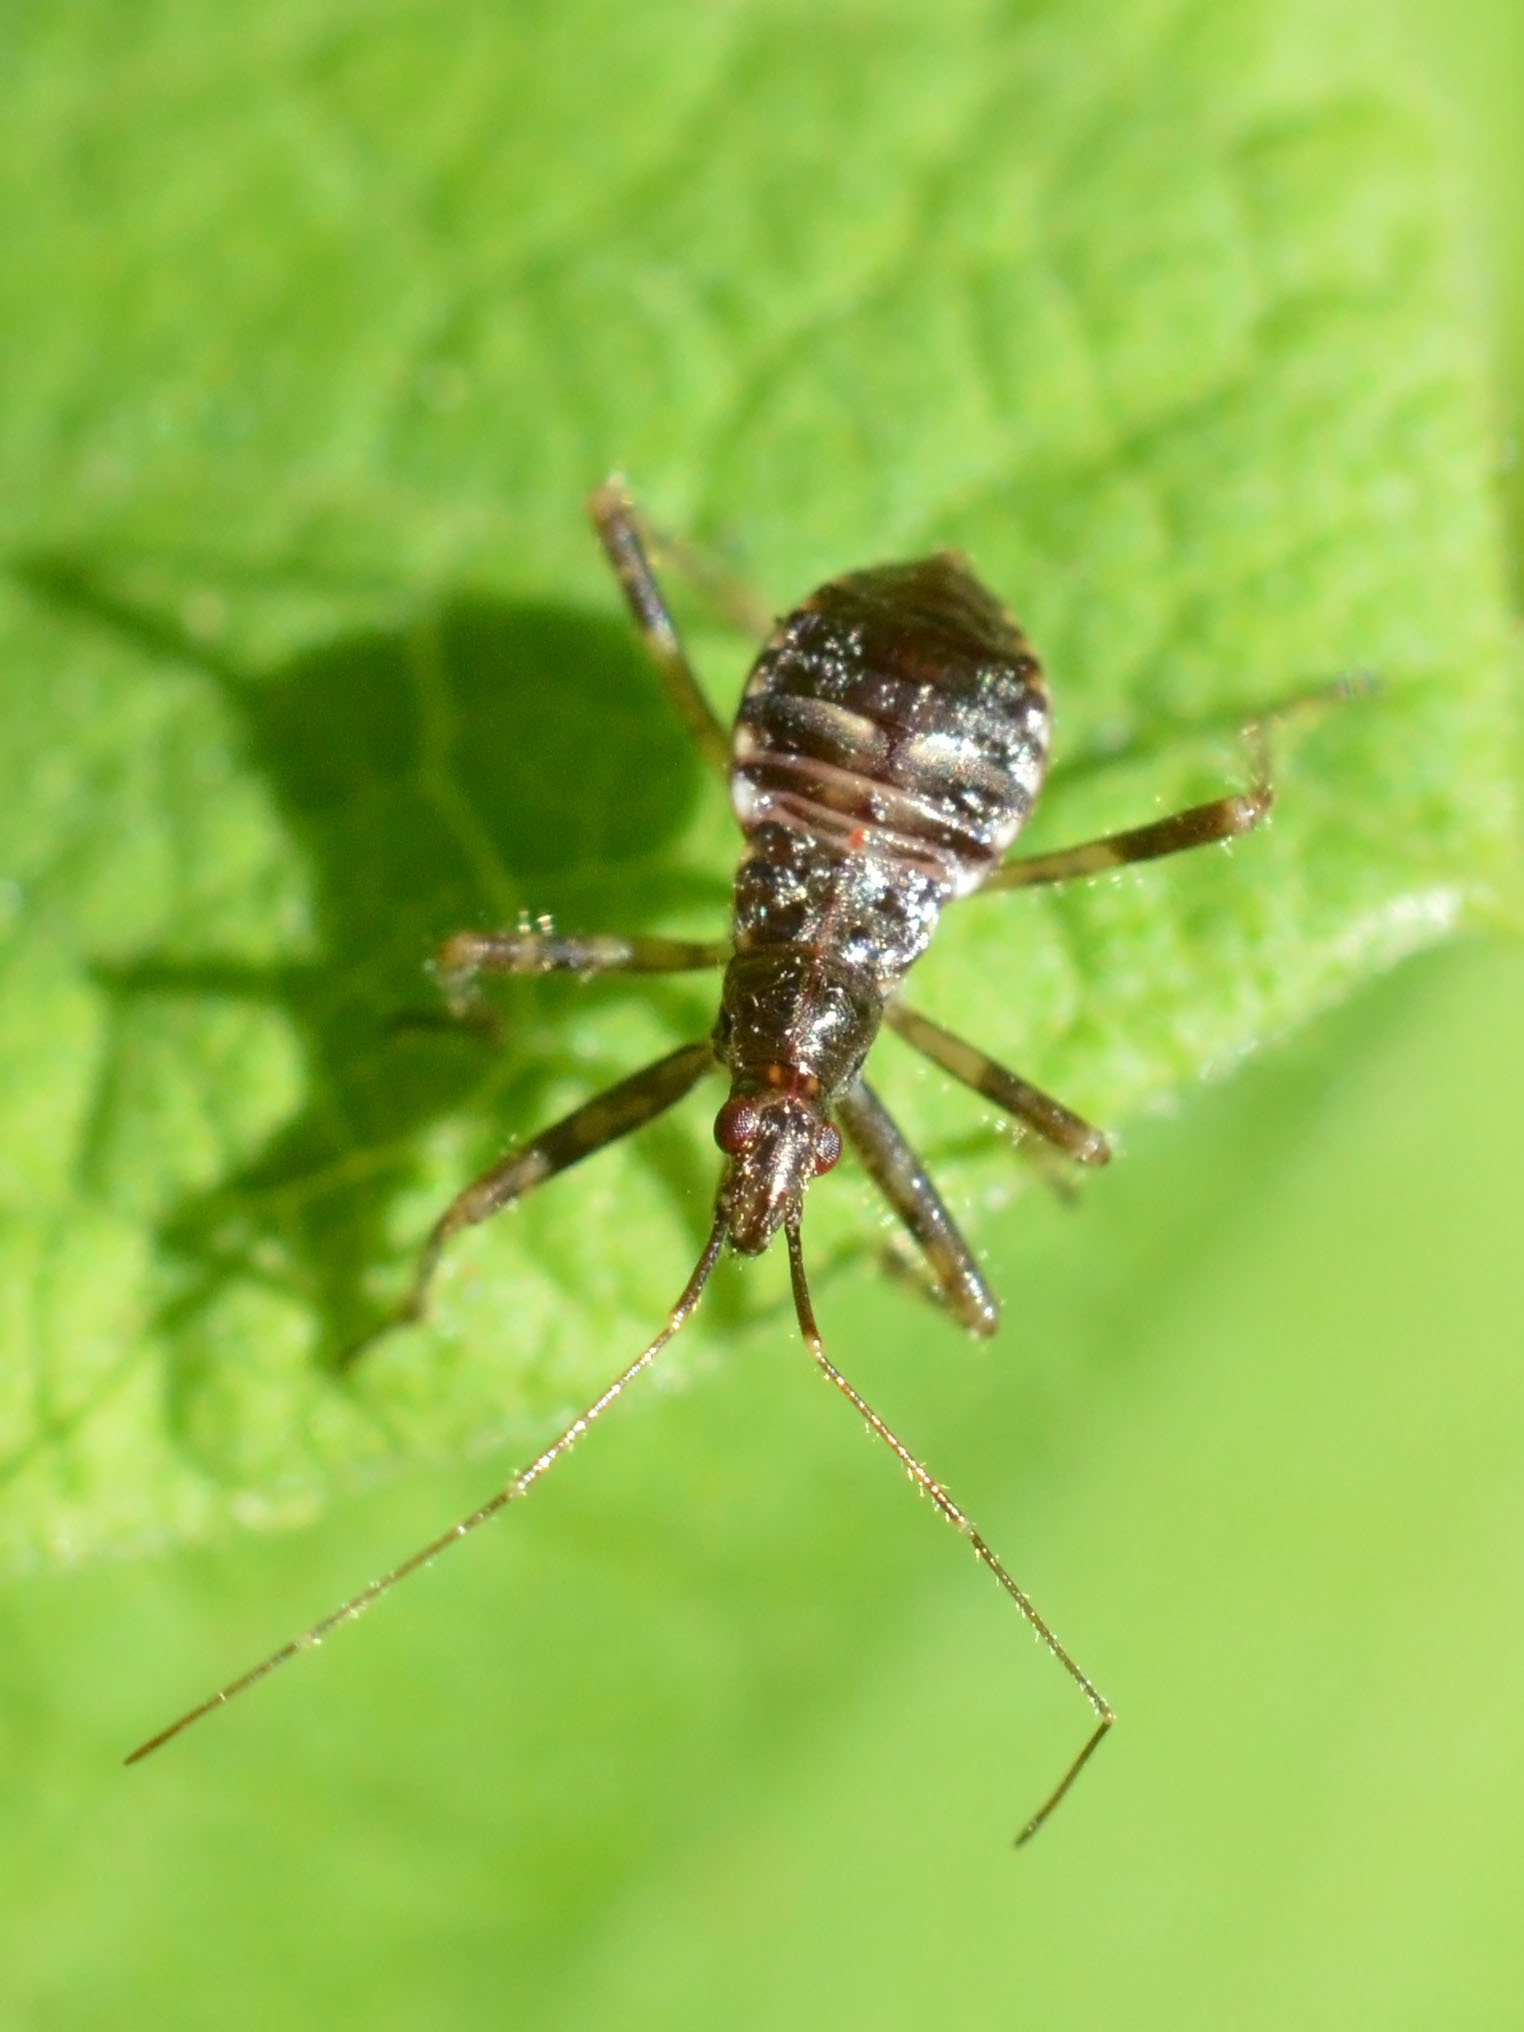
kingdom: Animalia
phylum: Arthropoda
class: Insecta
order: Hemiptera
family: Nabidae
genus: Himacerus
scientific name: Himacerus apterus
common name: Tree damsel bug
